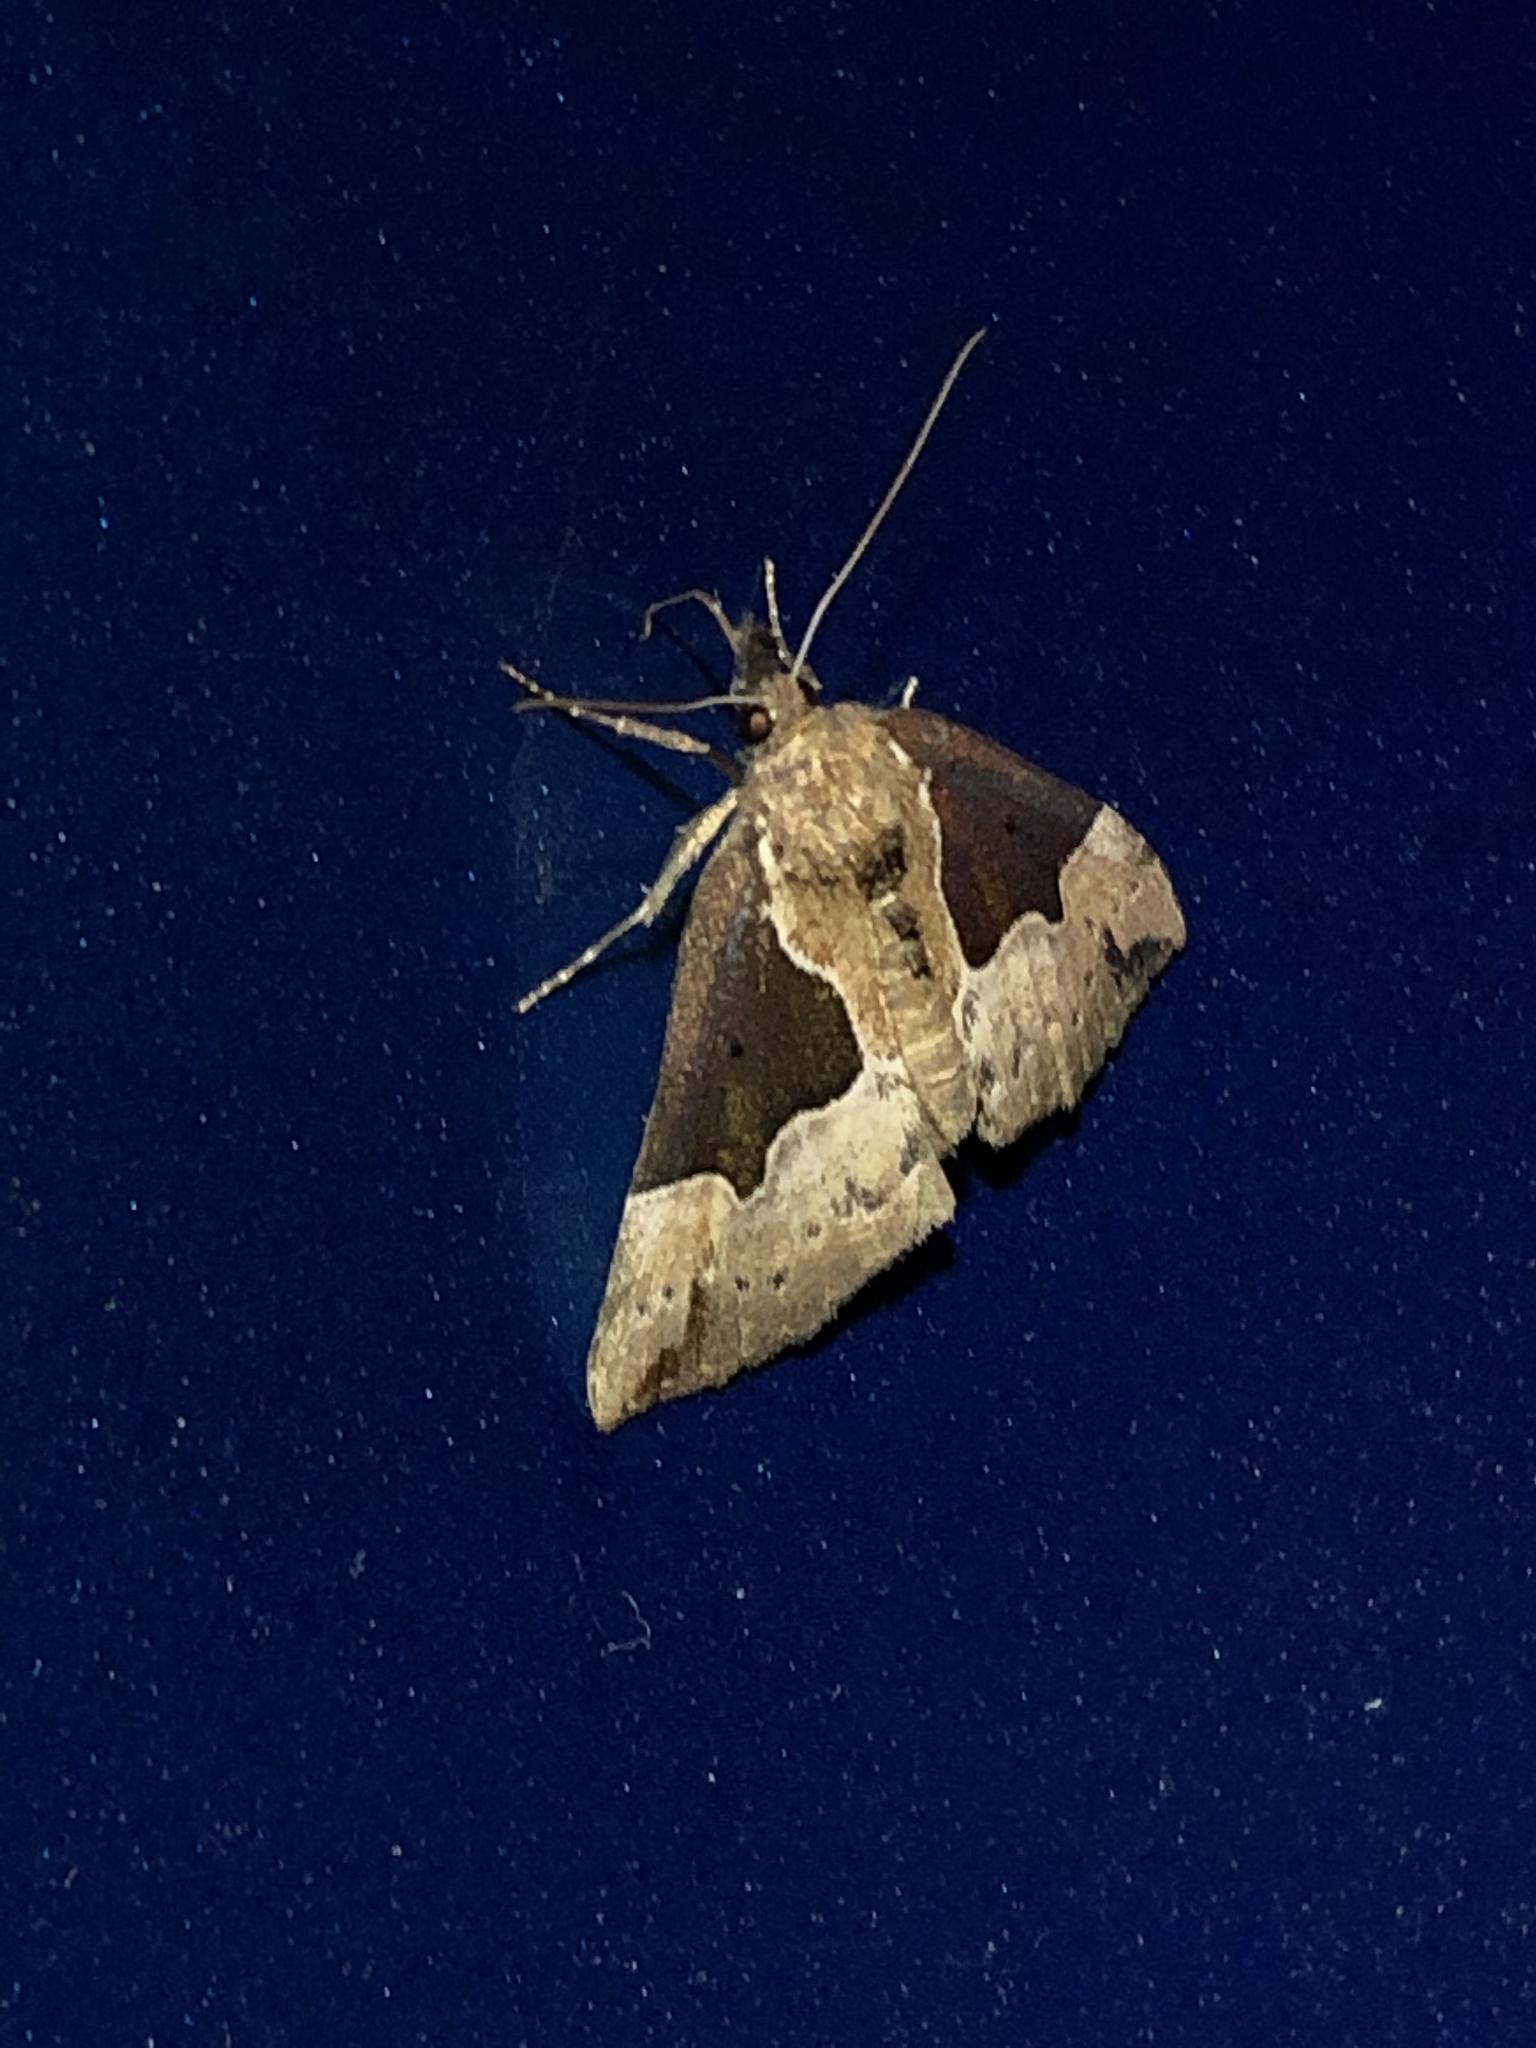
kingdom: Animalia
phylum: Arthropoda
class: Insecta
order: Lepidoptera
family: Erebidae
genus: Hypena
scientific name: Hypena bijugalis
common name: Dimorphic bomolocha moth
